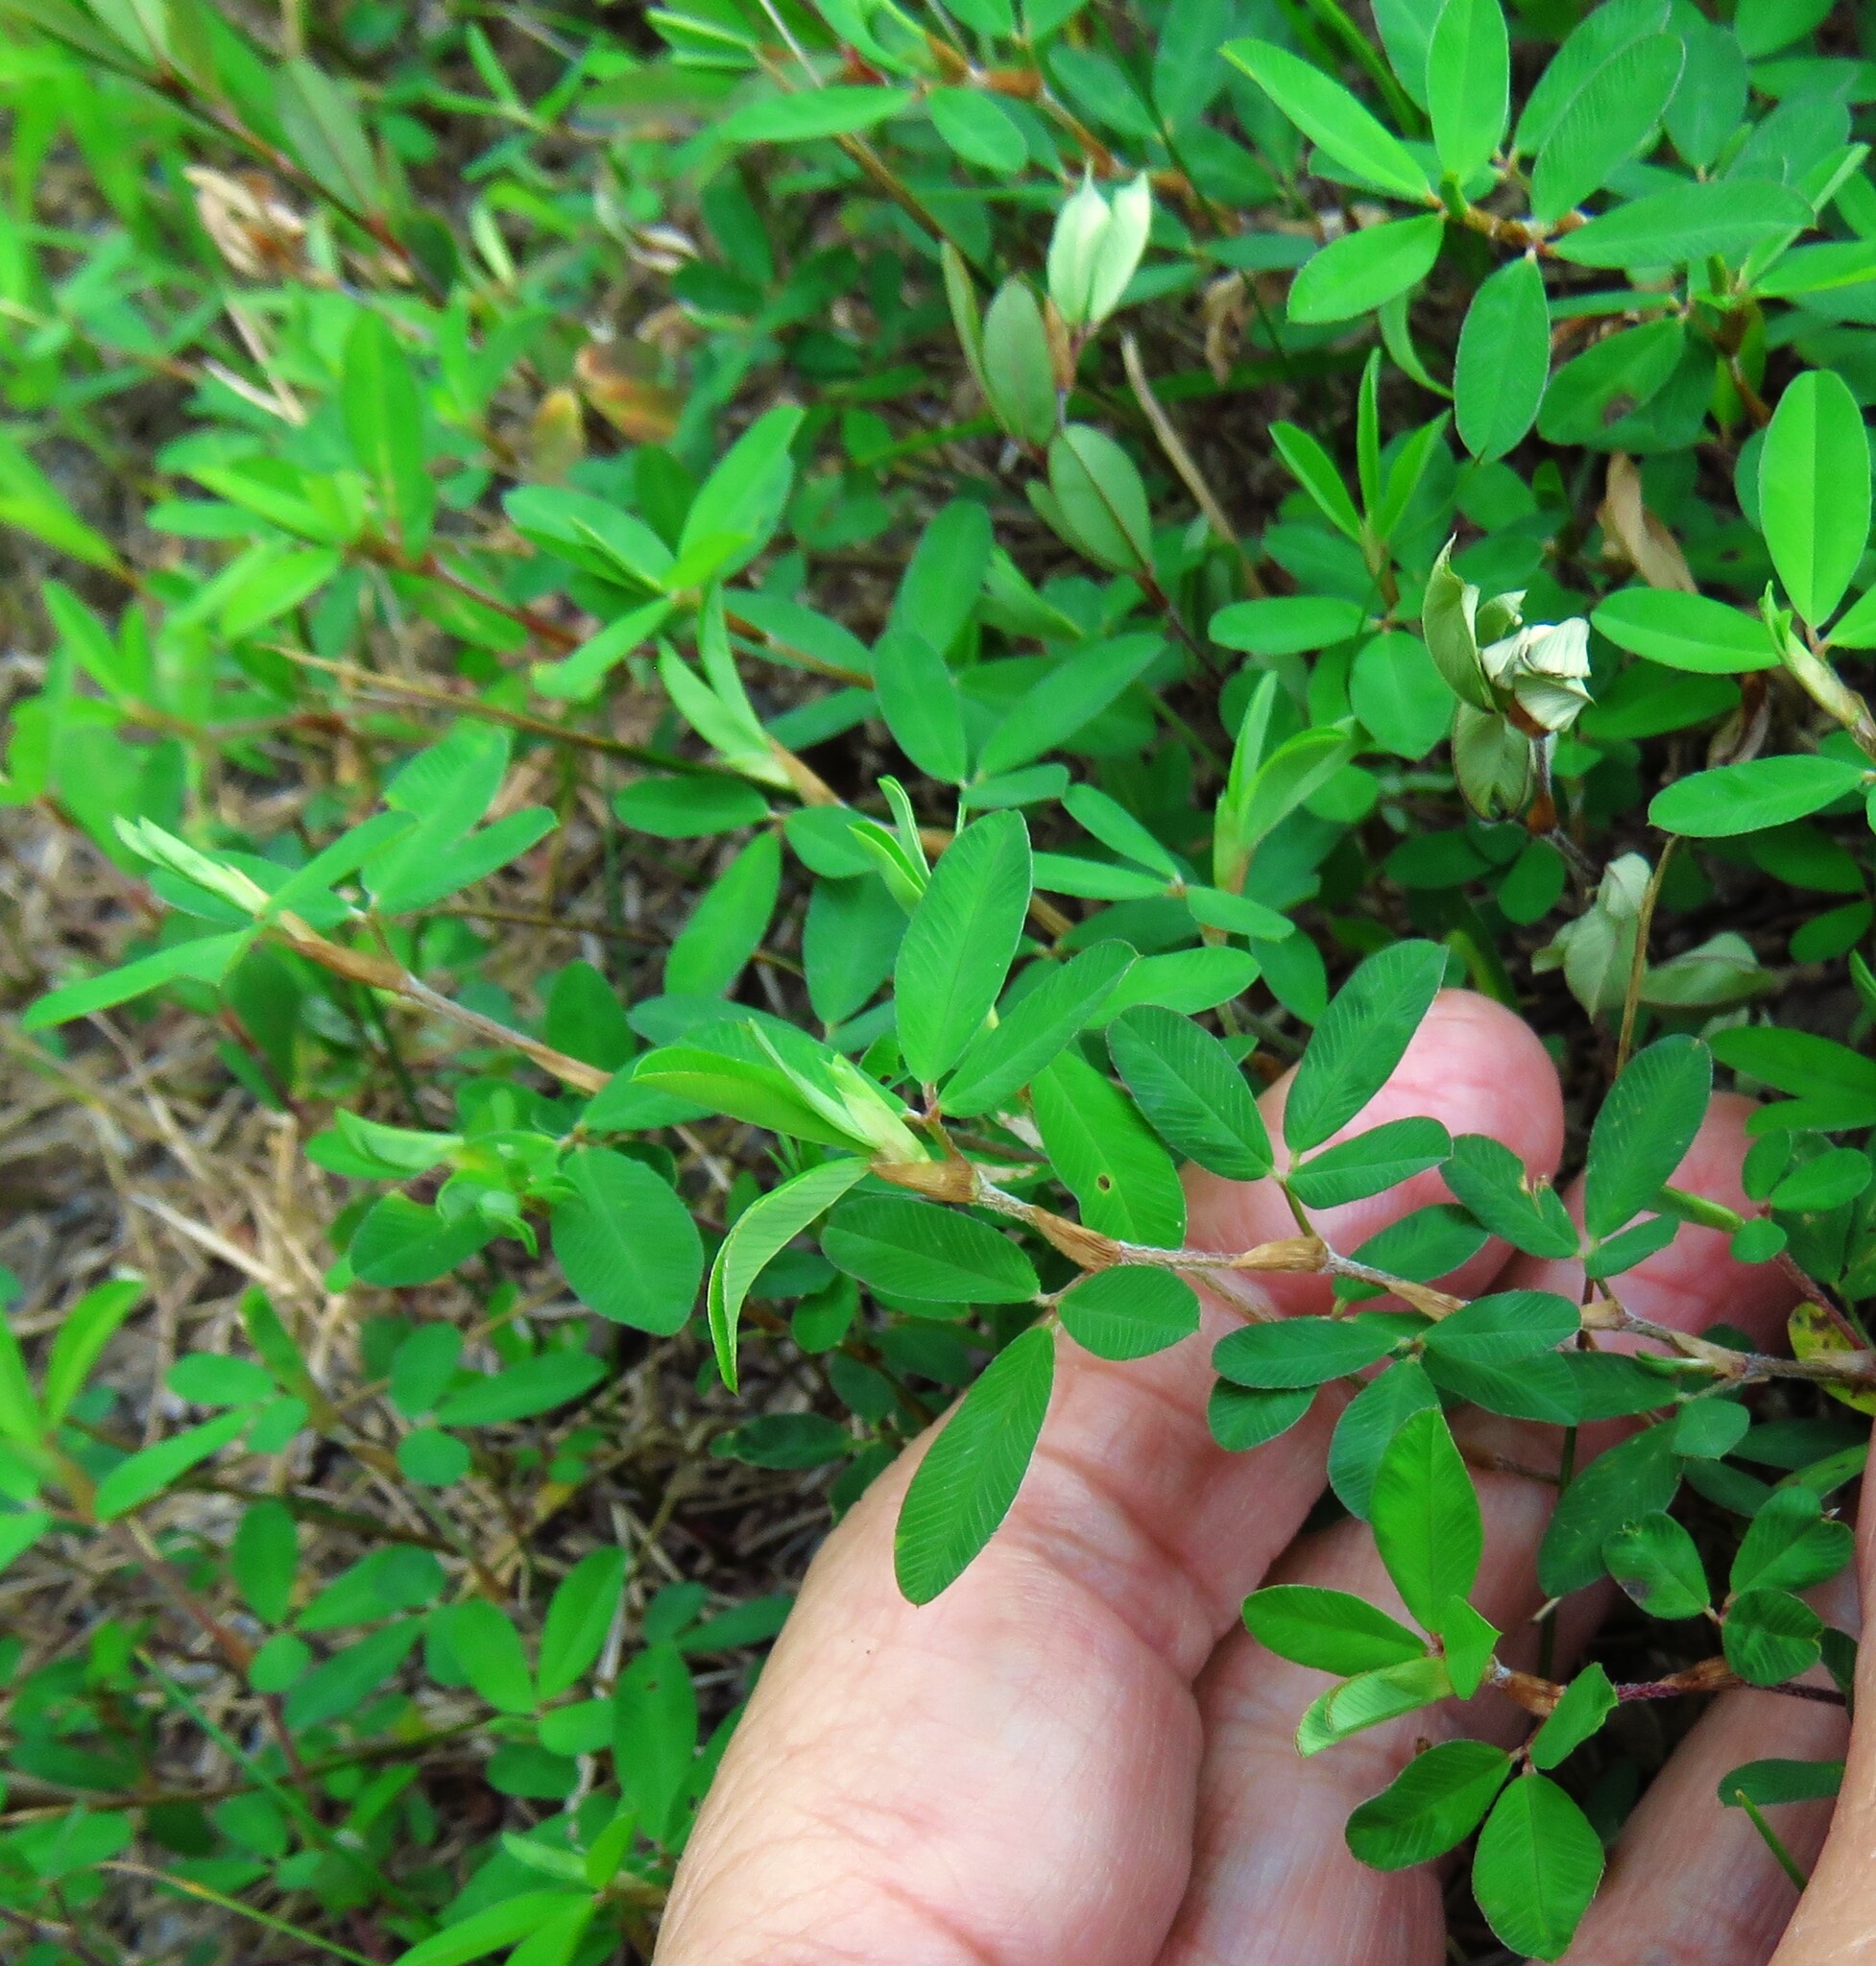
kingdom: Plantae
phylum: Tracheophyta
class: Magnoliopsida
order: Fabales
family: Fabaceae
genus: Kummerowia
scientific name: Kummerowia striata
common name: Japanese clover
